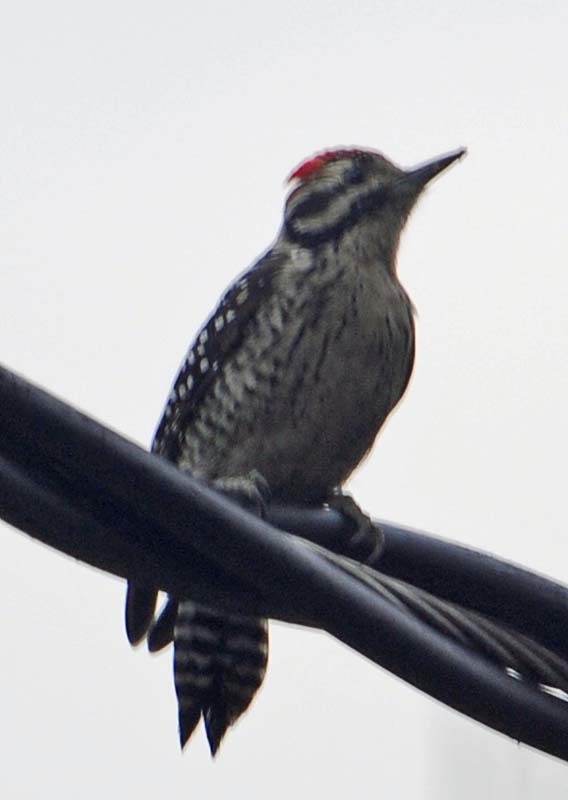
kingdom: Animalia
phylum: Chordata
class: Aves
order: Piciformes
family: Picidae
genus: Dryobates
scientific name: Dryobates scalaris
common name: Ladder-backed woodpecker
